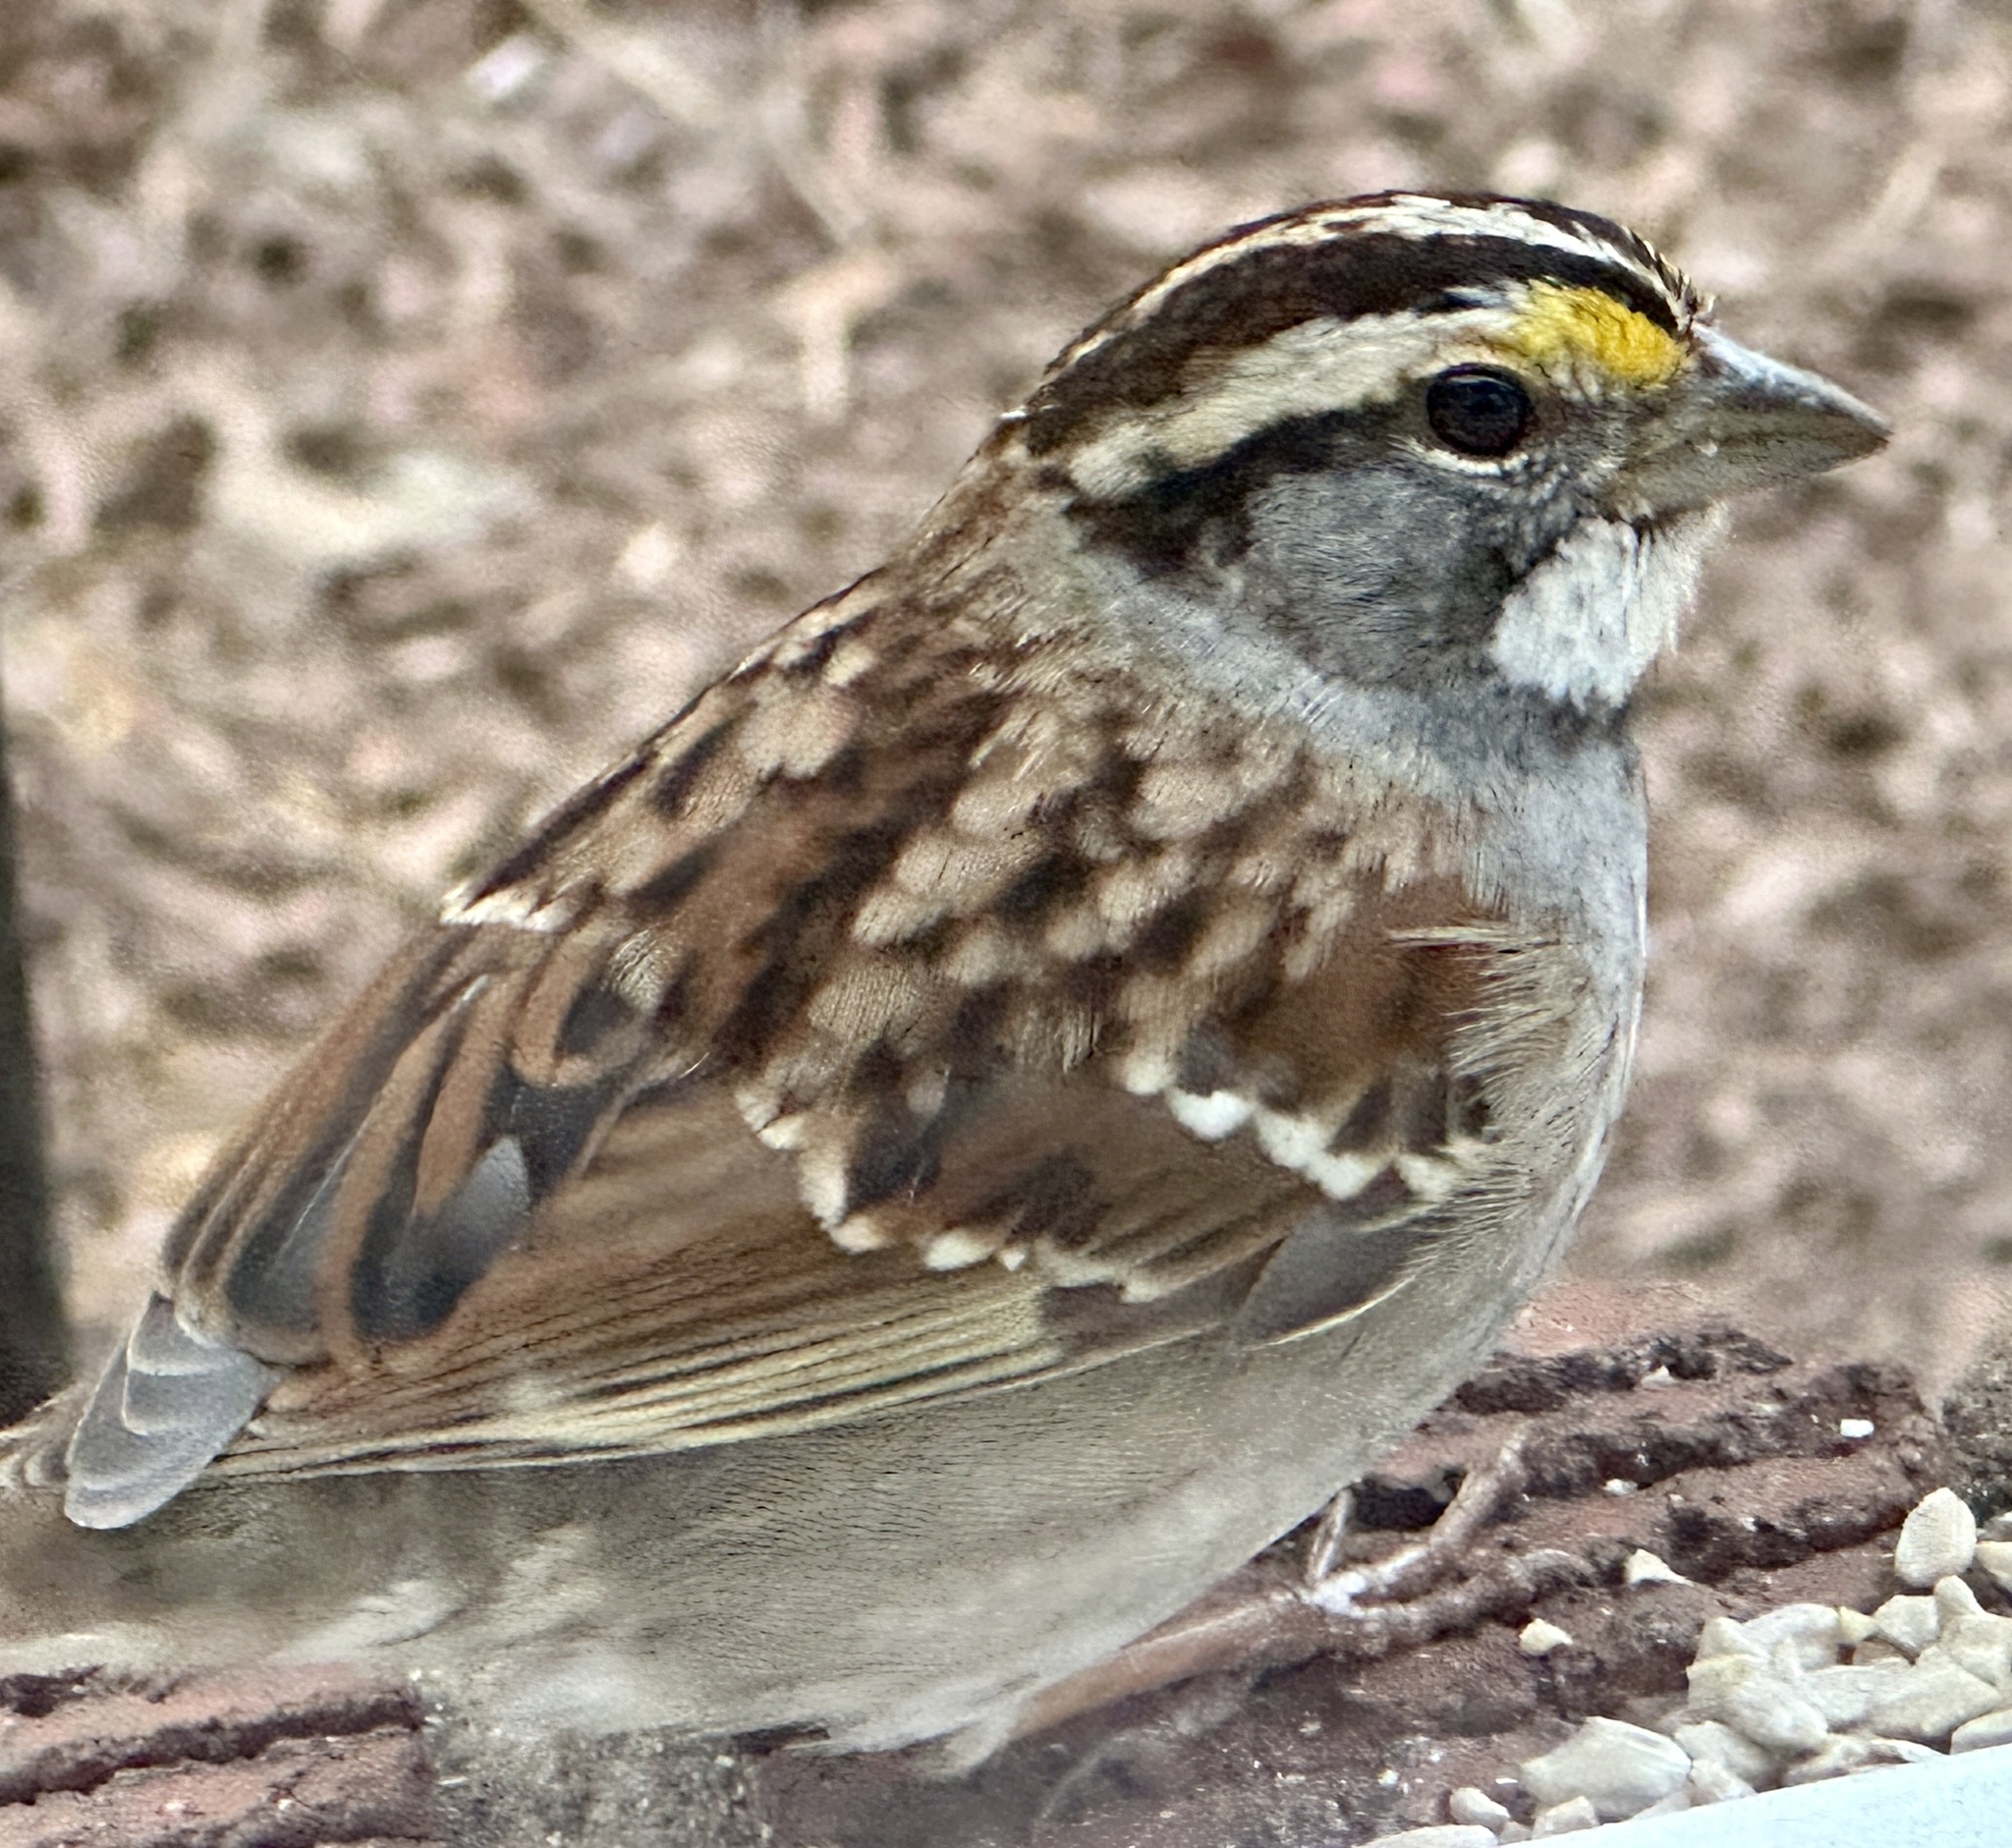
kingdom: Animalia
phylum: Chordata
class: Aves
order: Passeriformes
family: Passerellidae
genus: Zonotrichia
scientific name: Zonotrichia albicollis
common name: White-throated sparrow
